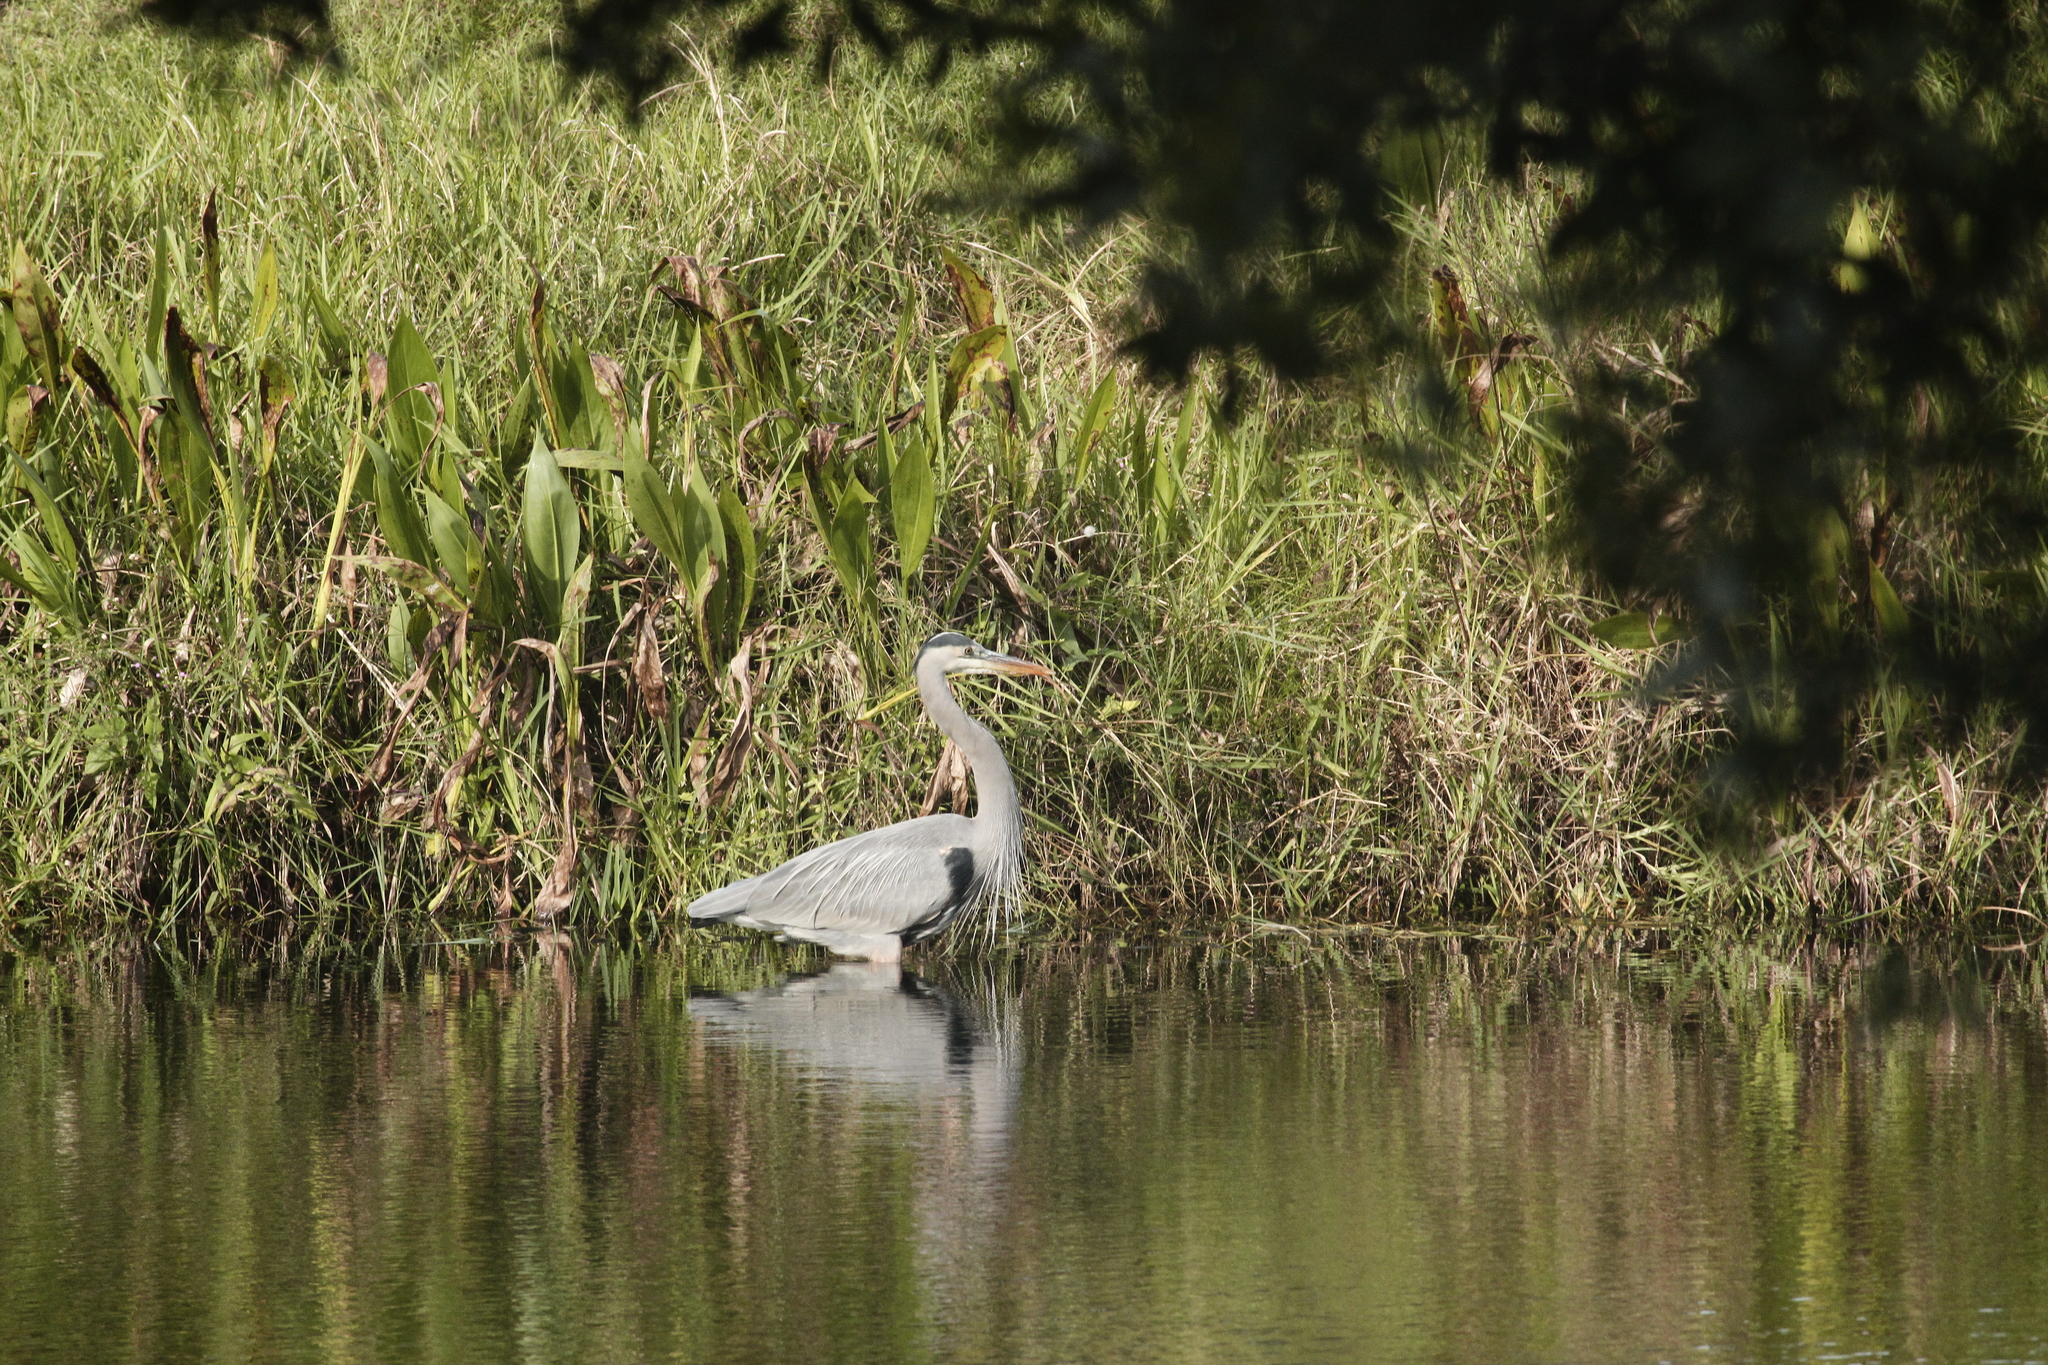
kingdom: Animalia
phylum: Chordata
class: Aves
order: Pelecaniformes
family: Ardeidae
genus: Ardea
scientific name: Ardea herodias
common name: Great blue heron
